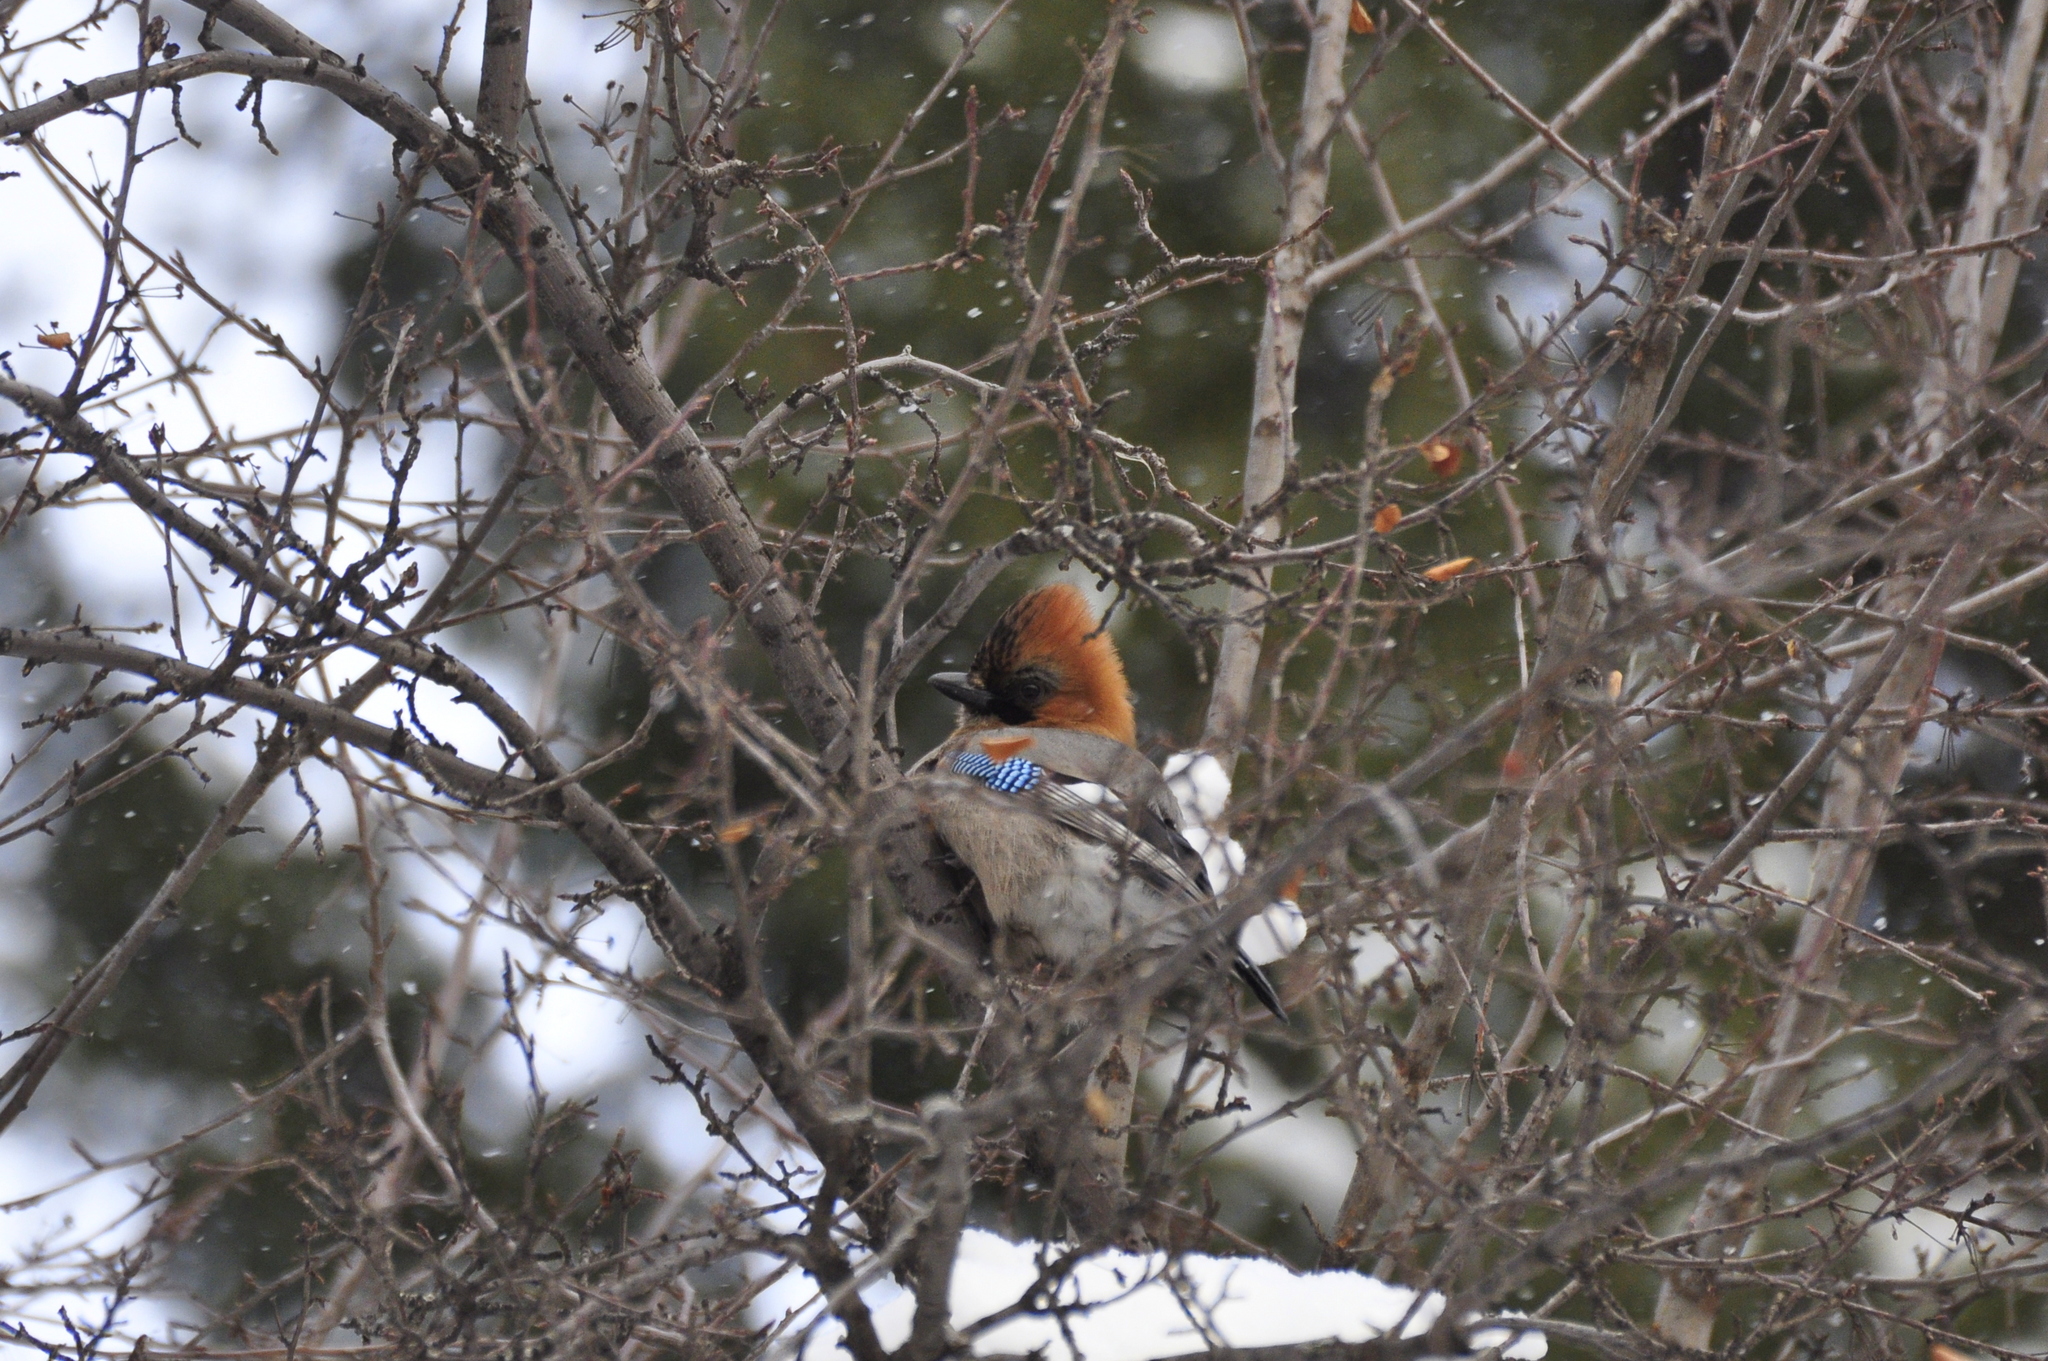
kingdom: Animalia
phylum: Chordata
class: Aves
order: Passeriformes
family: Corvidae
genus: Garrulus
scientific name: Garrulus glandarius
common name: Eurasian jay
